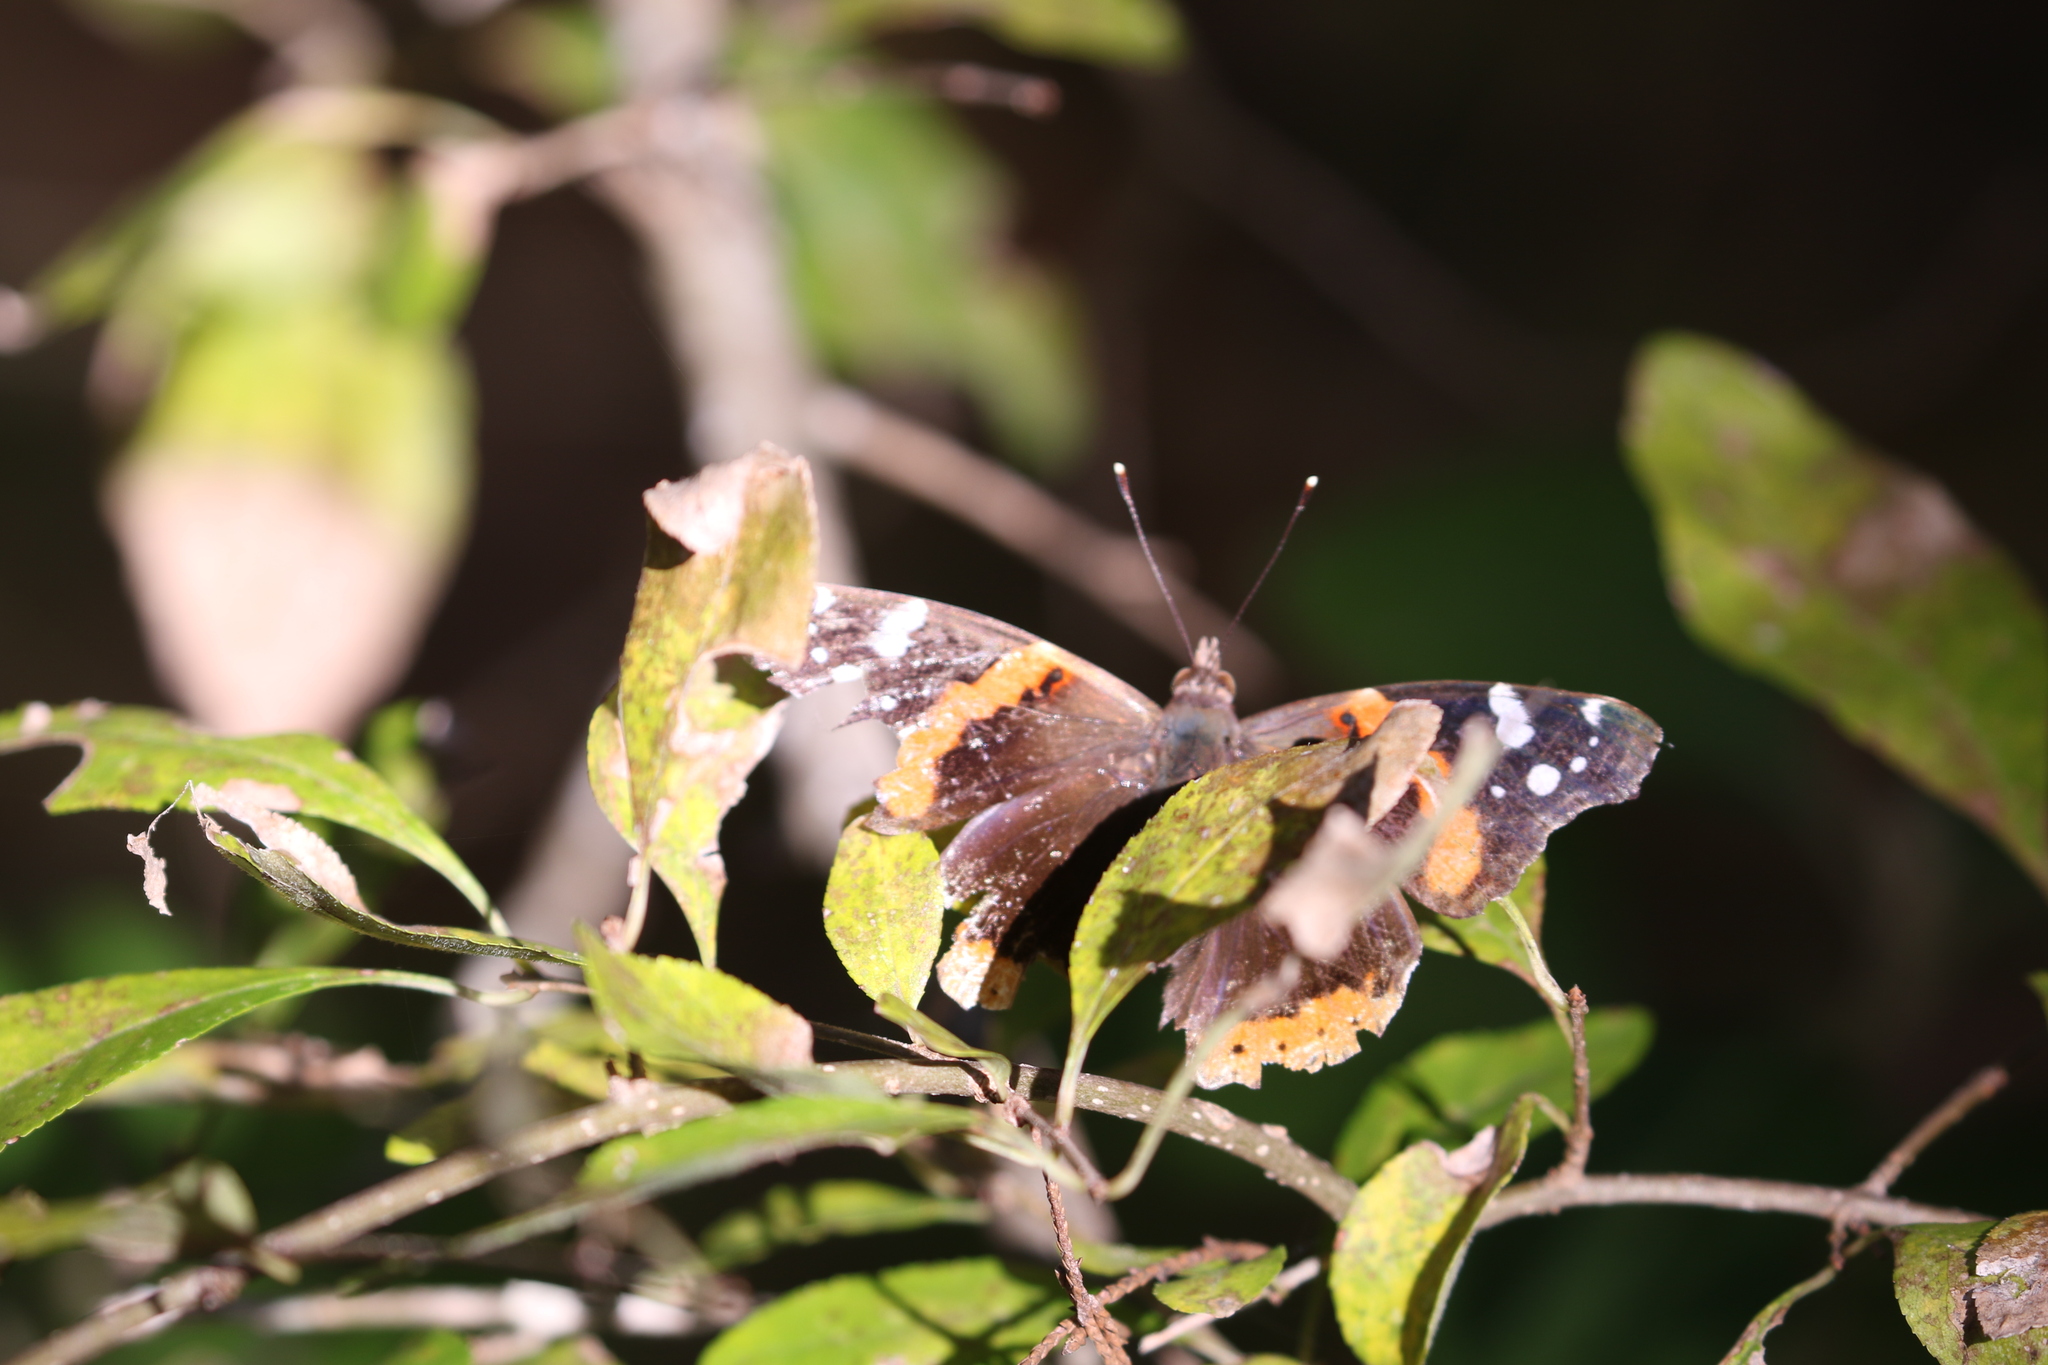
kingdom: Animalia
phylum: Arthropoda
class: Insecta
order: Lepidoptera
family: Nymphalidae
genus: Vanessa
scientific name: Vanessa atalanta
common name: Red admiral
